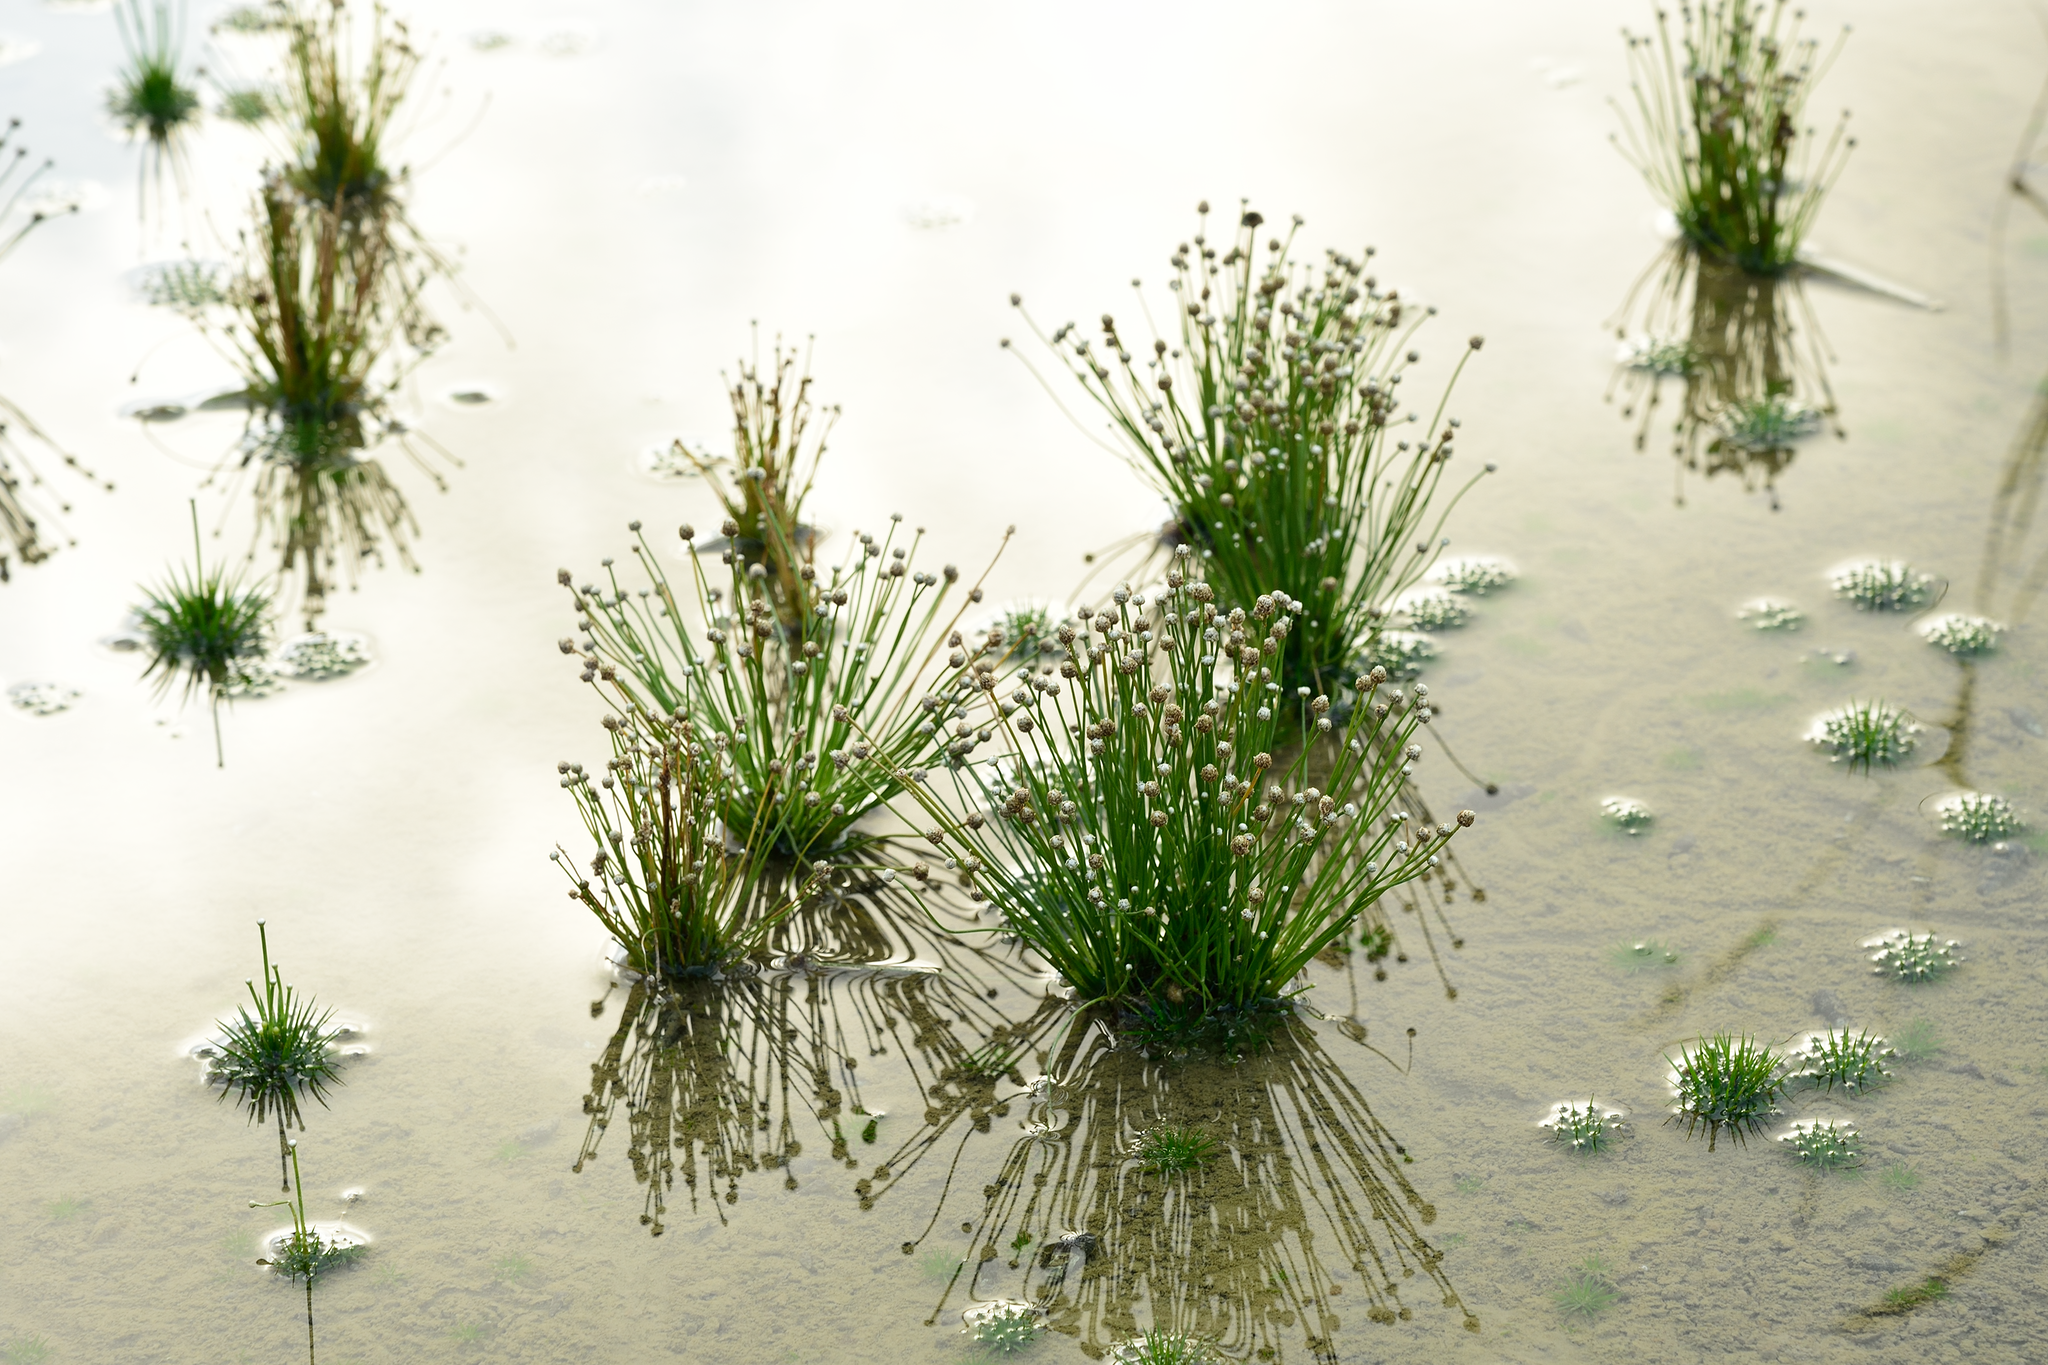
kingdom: Plantae
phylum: Tracheophyta
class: Liliopsida
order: Poales
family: Eriocaulaceae
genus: Eriocaulon
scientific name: Eriocaulon cinereum
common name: Ashy pipewort
